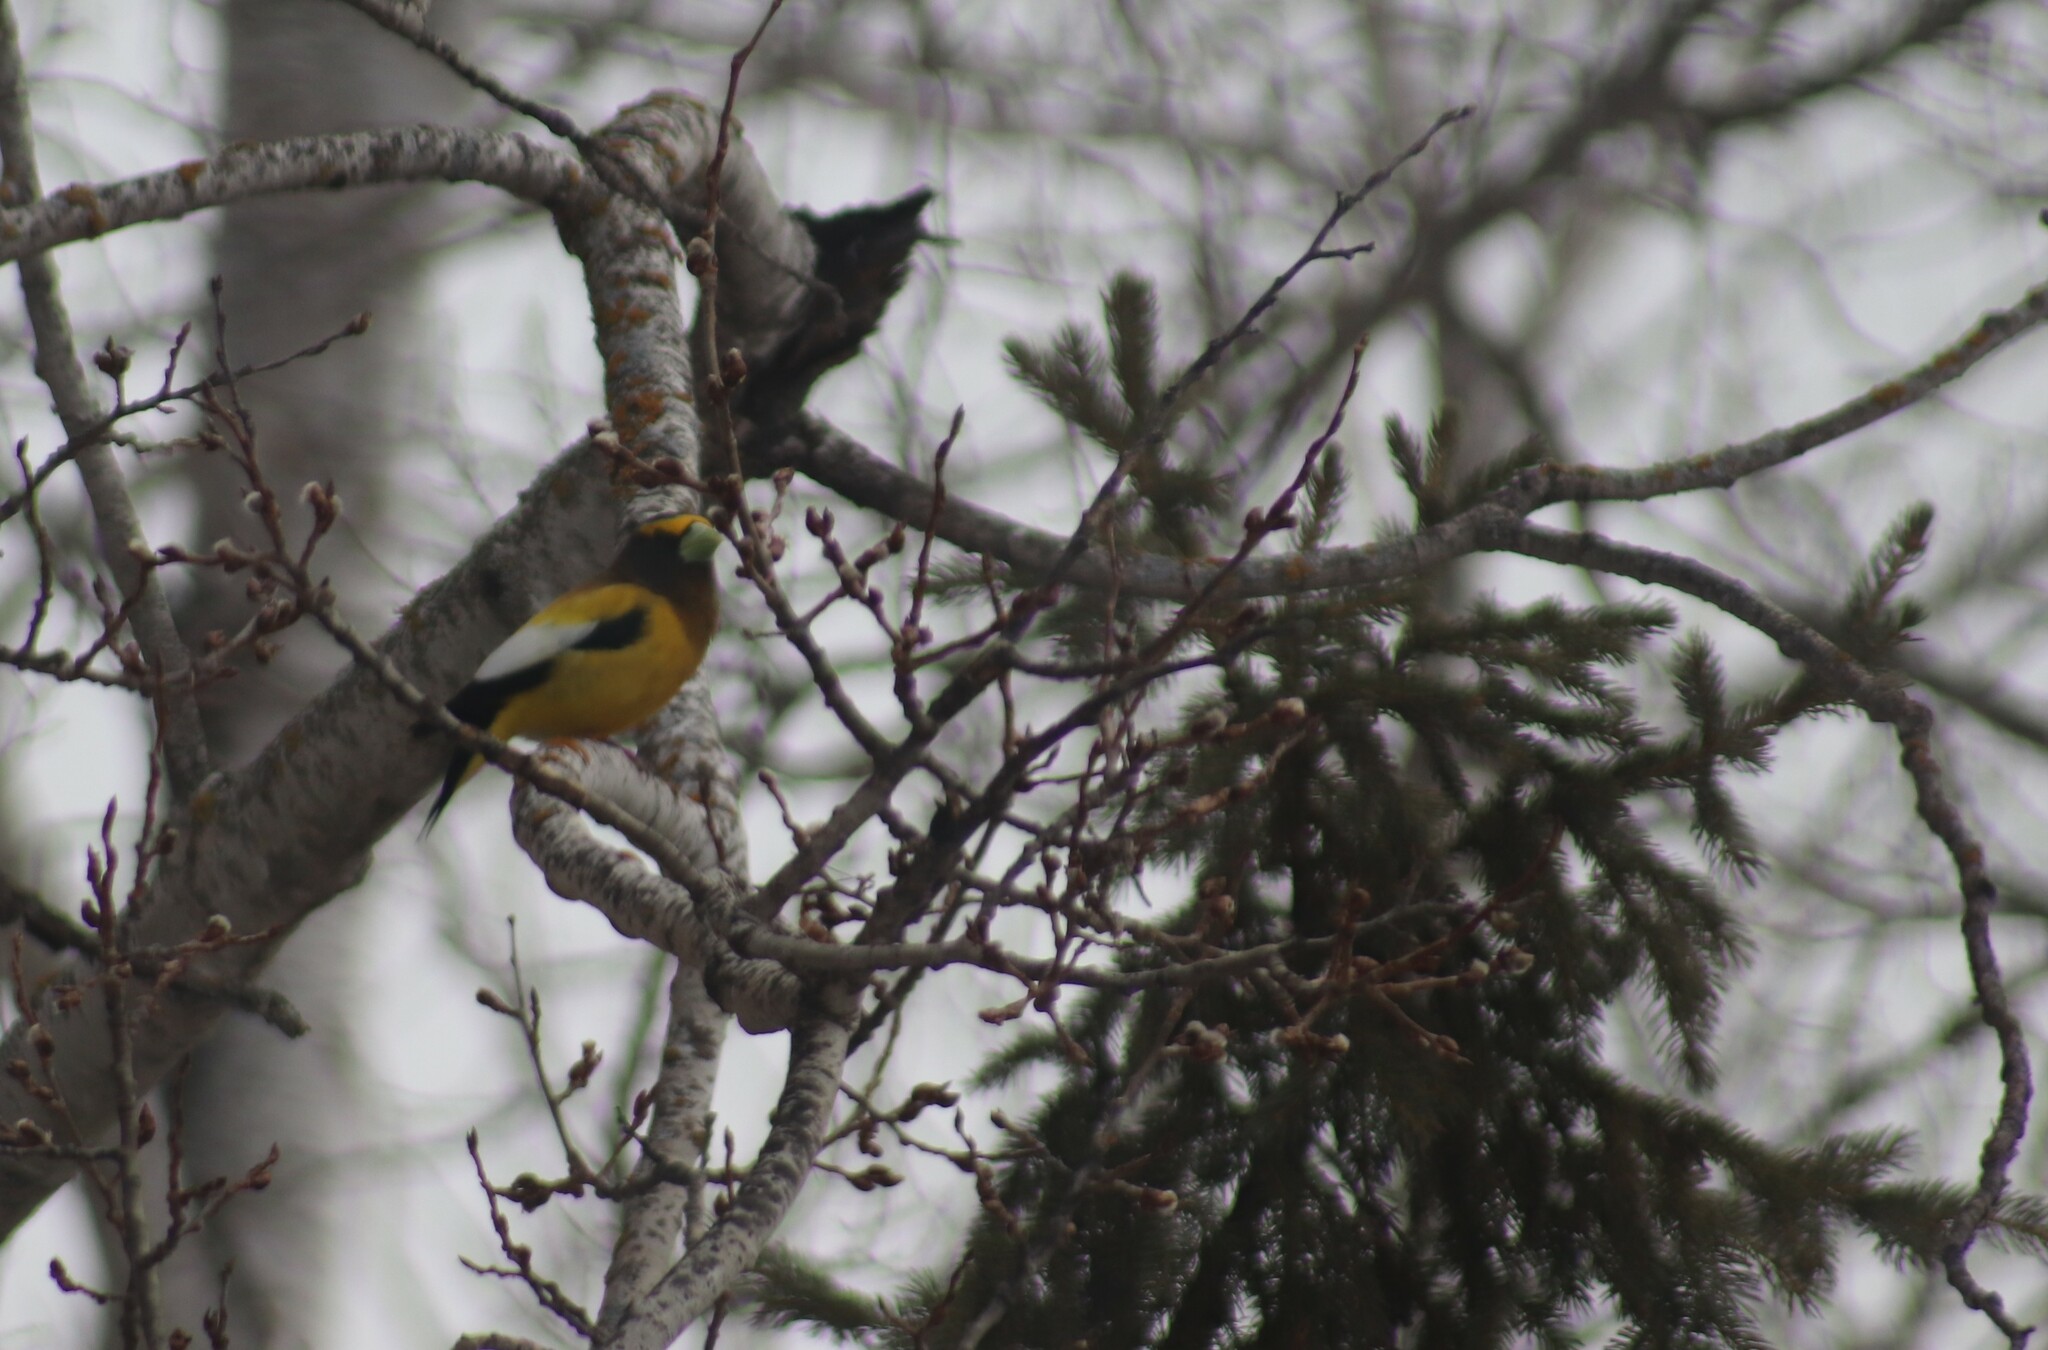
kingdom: Animalia
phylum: Chordata
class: Aves
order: Passeriformes
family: Fringillidae
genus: Hesperiphona
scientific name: Hesperiphona vespertina
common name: Evening grosbeak
